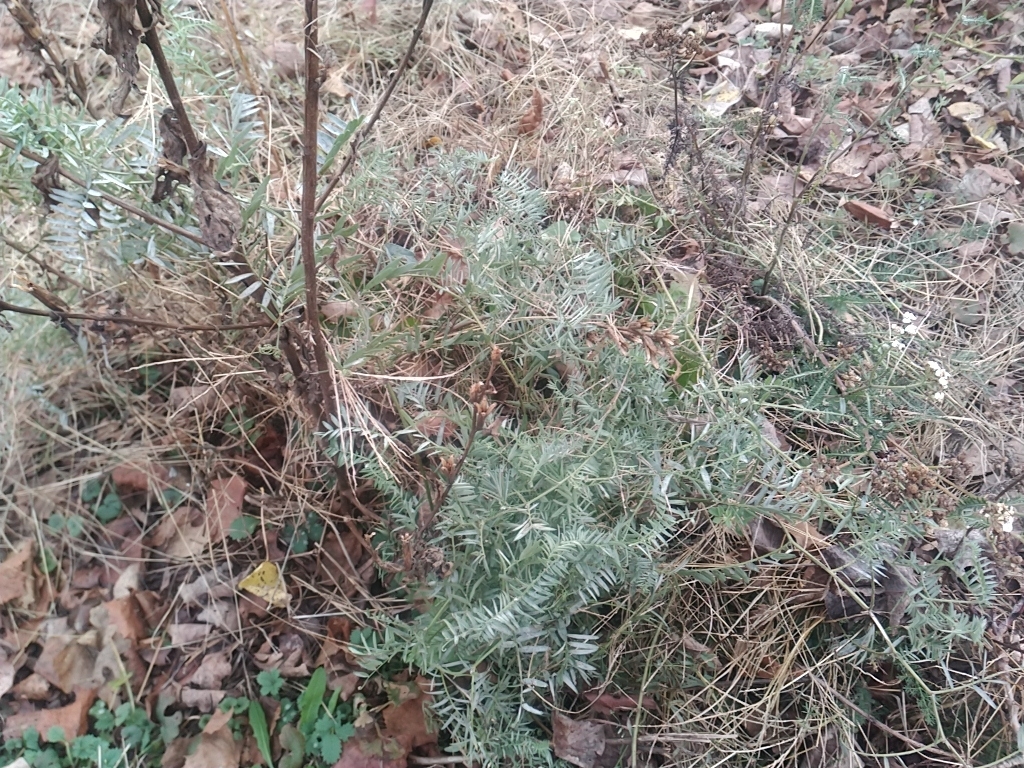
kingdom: Plantae
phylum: Tracheophyta
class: Magnoliopsida
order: Fabales
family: Fabaceae
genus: Vicia
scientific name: Vicia cracca
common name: Bird vetch
